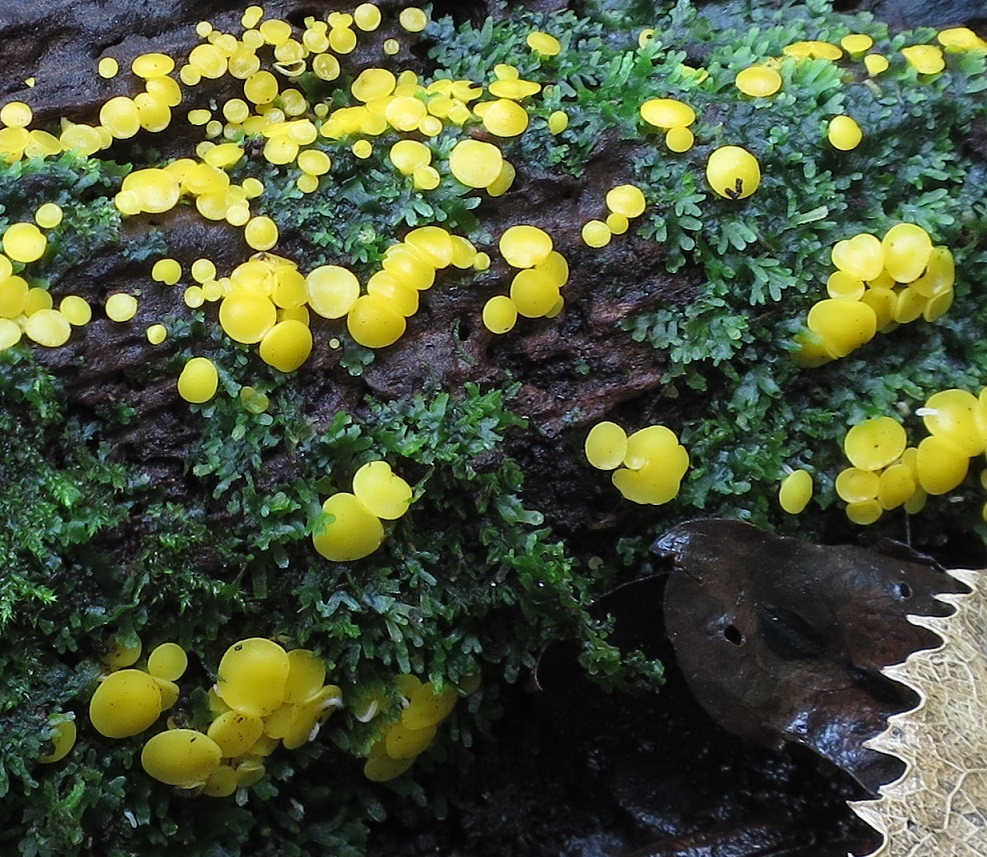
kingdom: Fungi
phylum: Ascomycota
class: Leotiomycetes
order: Helotiales
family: Pezizellaceae
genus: Calycina
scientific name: Calycina citrina
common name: Yellow fairy cups
